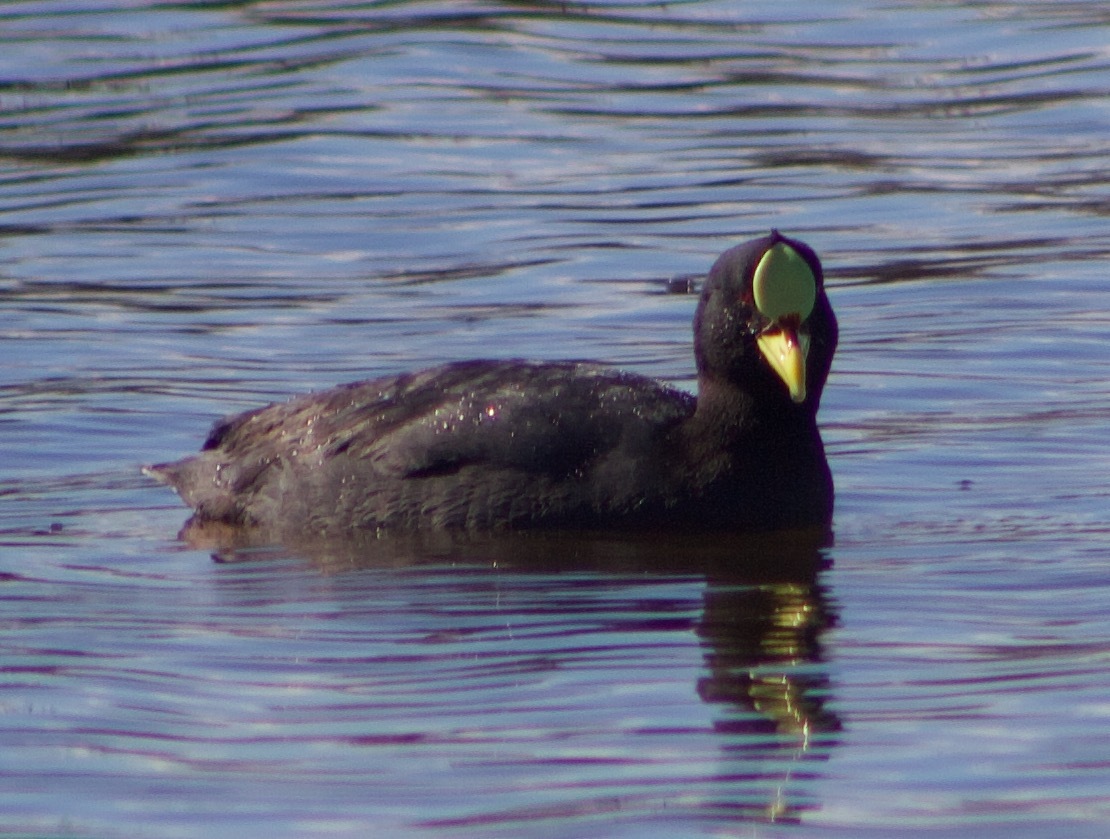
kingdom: Animalia
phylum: Chordata
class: Aves
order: Gruiformes
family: Rallidae
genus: Fulica
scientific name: Fulica armillata
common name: Red-gartered coot
